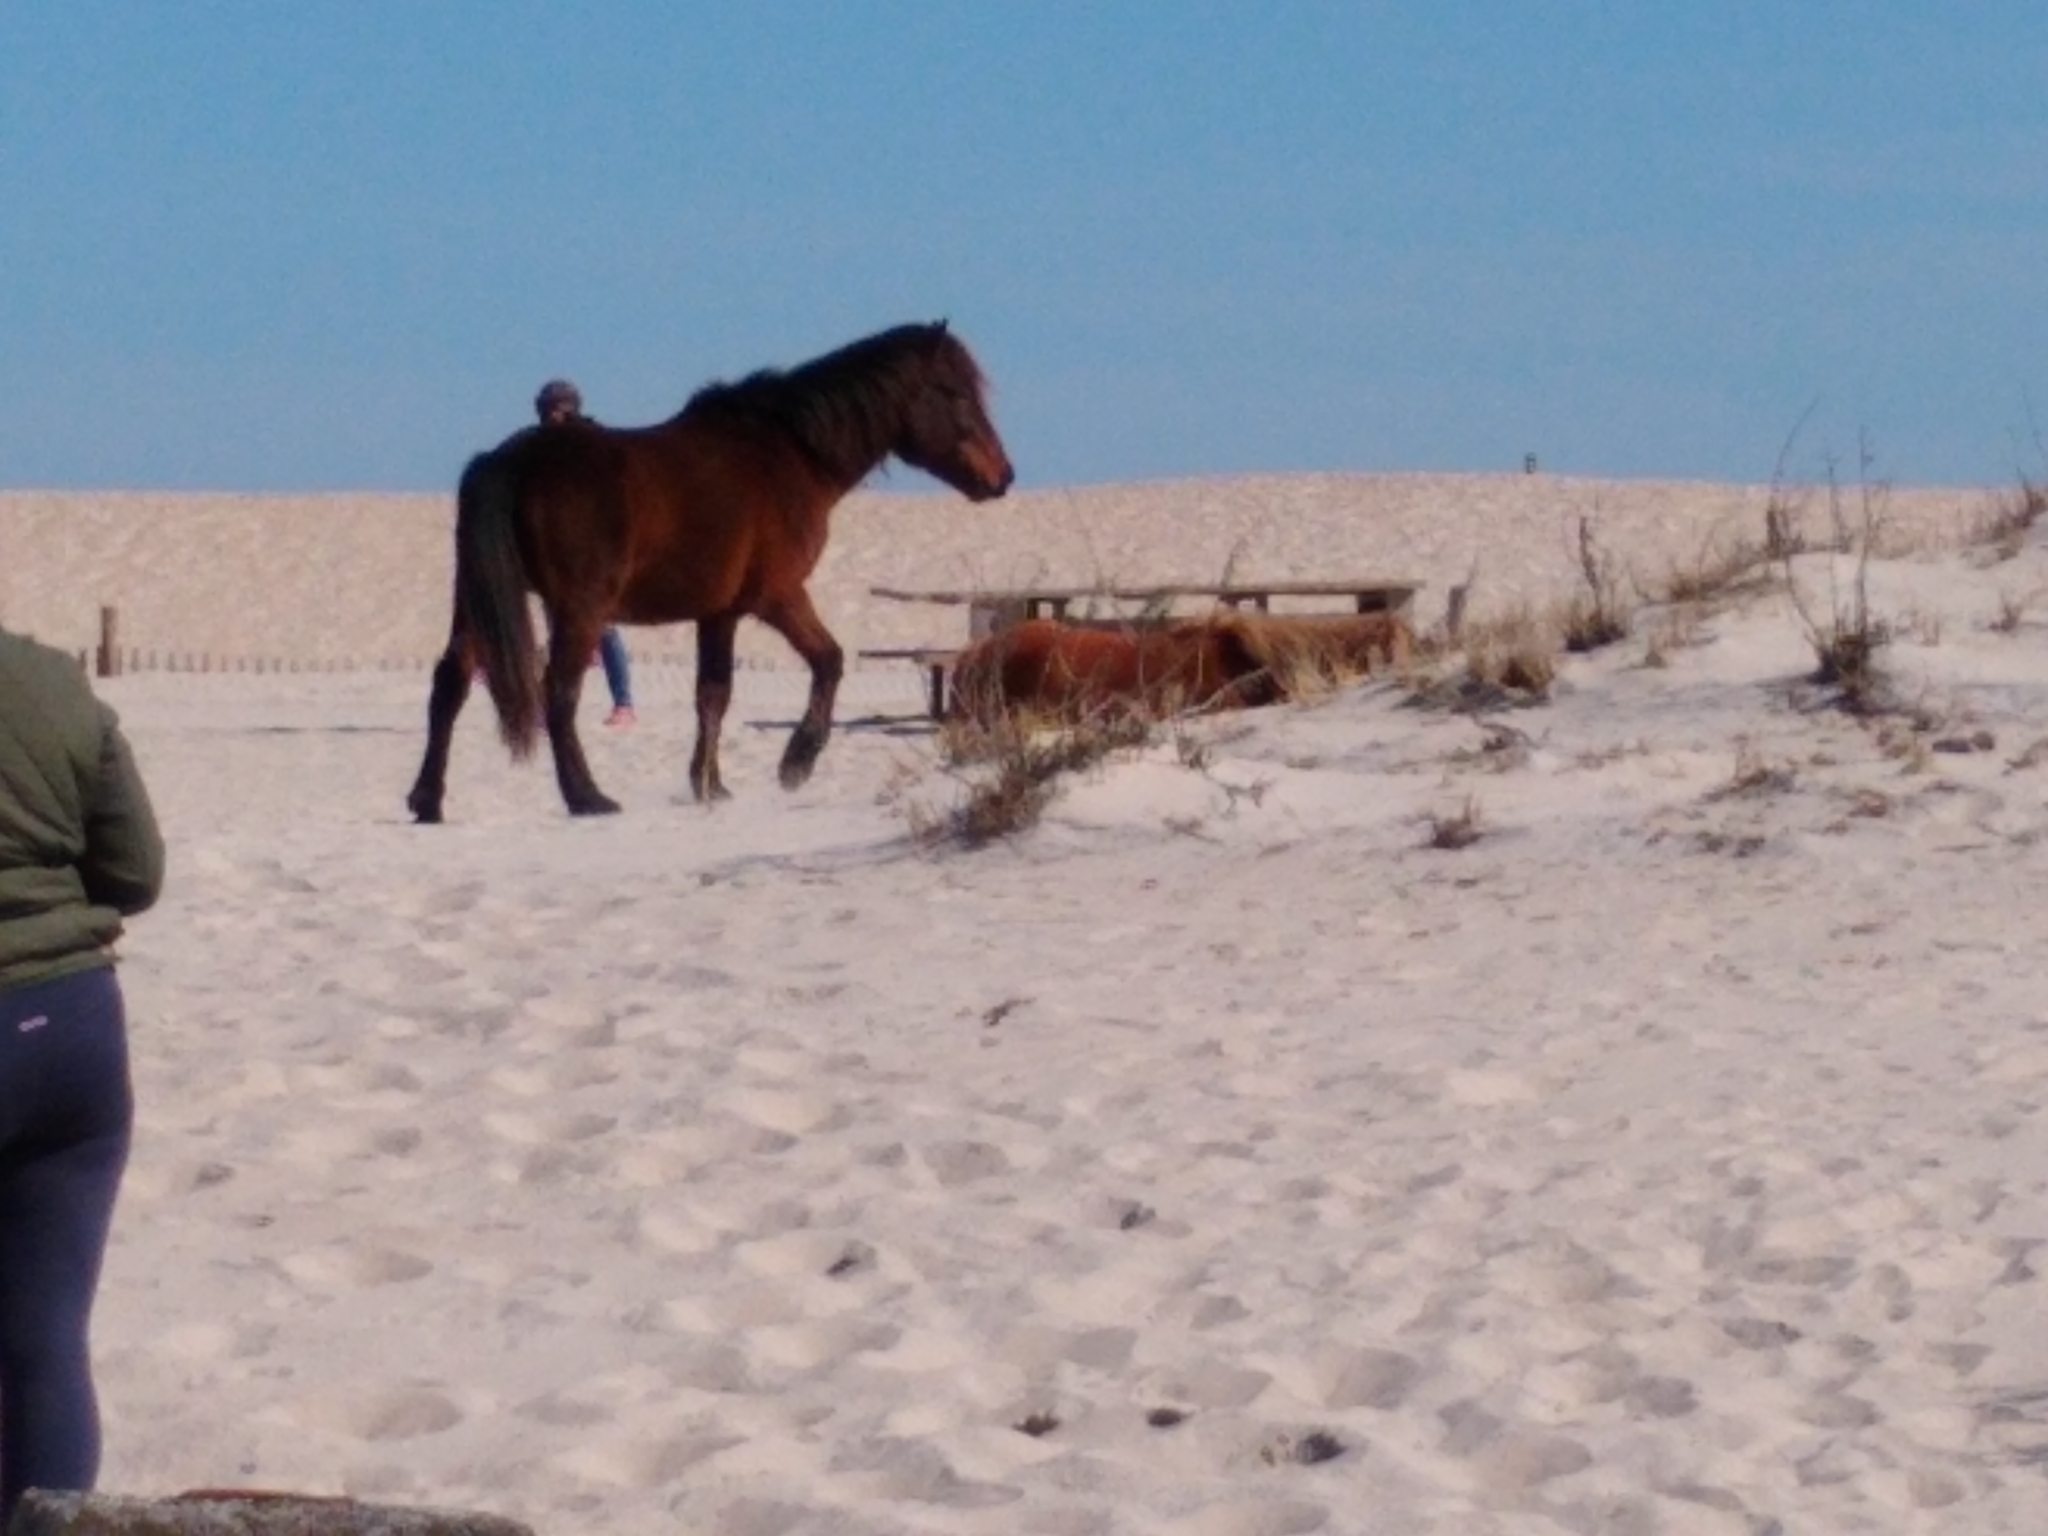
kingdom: Animalia
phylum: Chordata
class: Mammalia
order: Perissodactyla
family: Equidae
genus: Equus
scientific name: Equus caballus
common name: Horse
